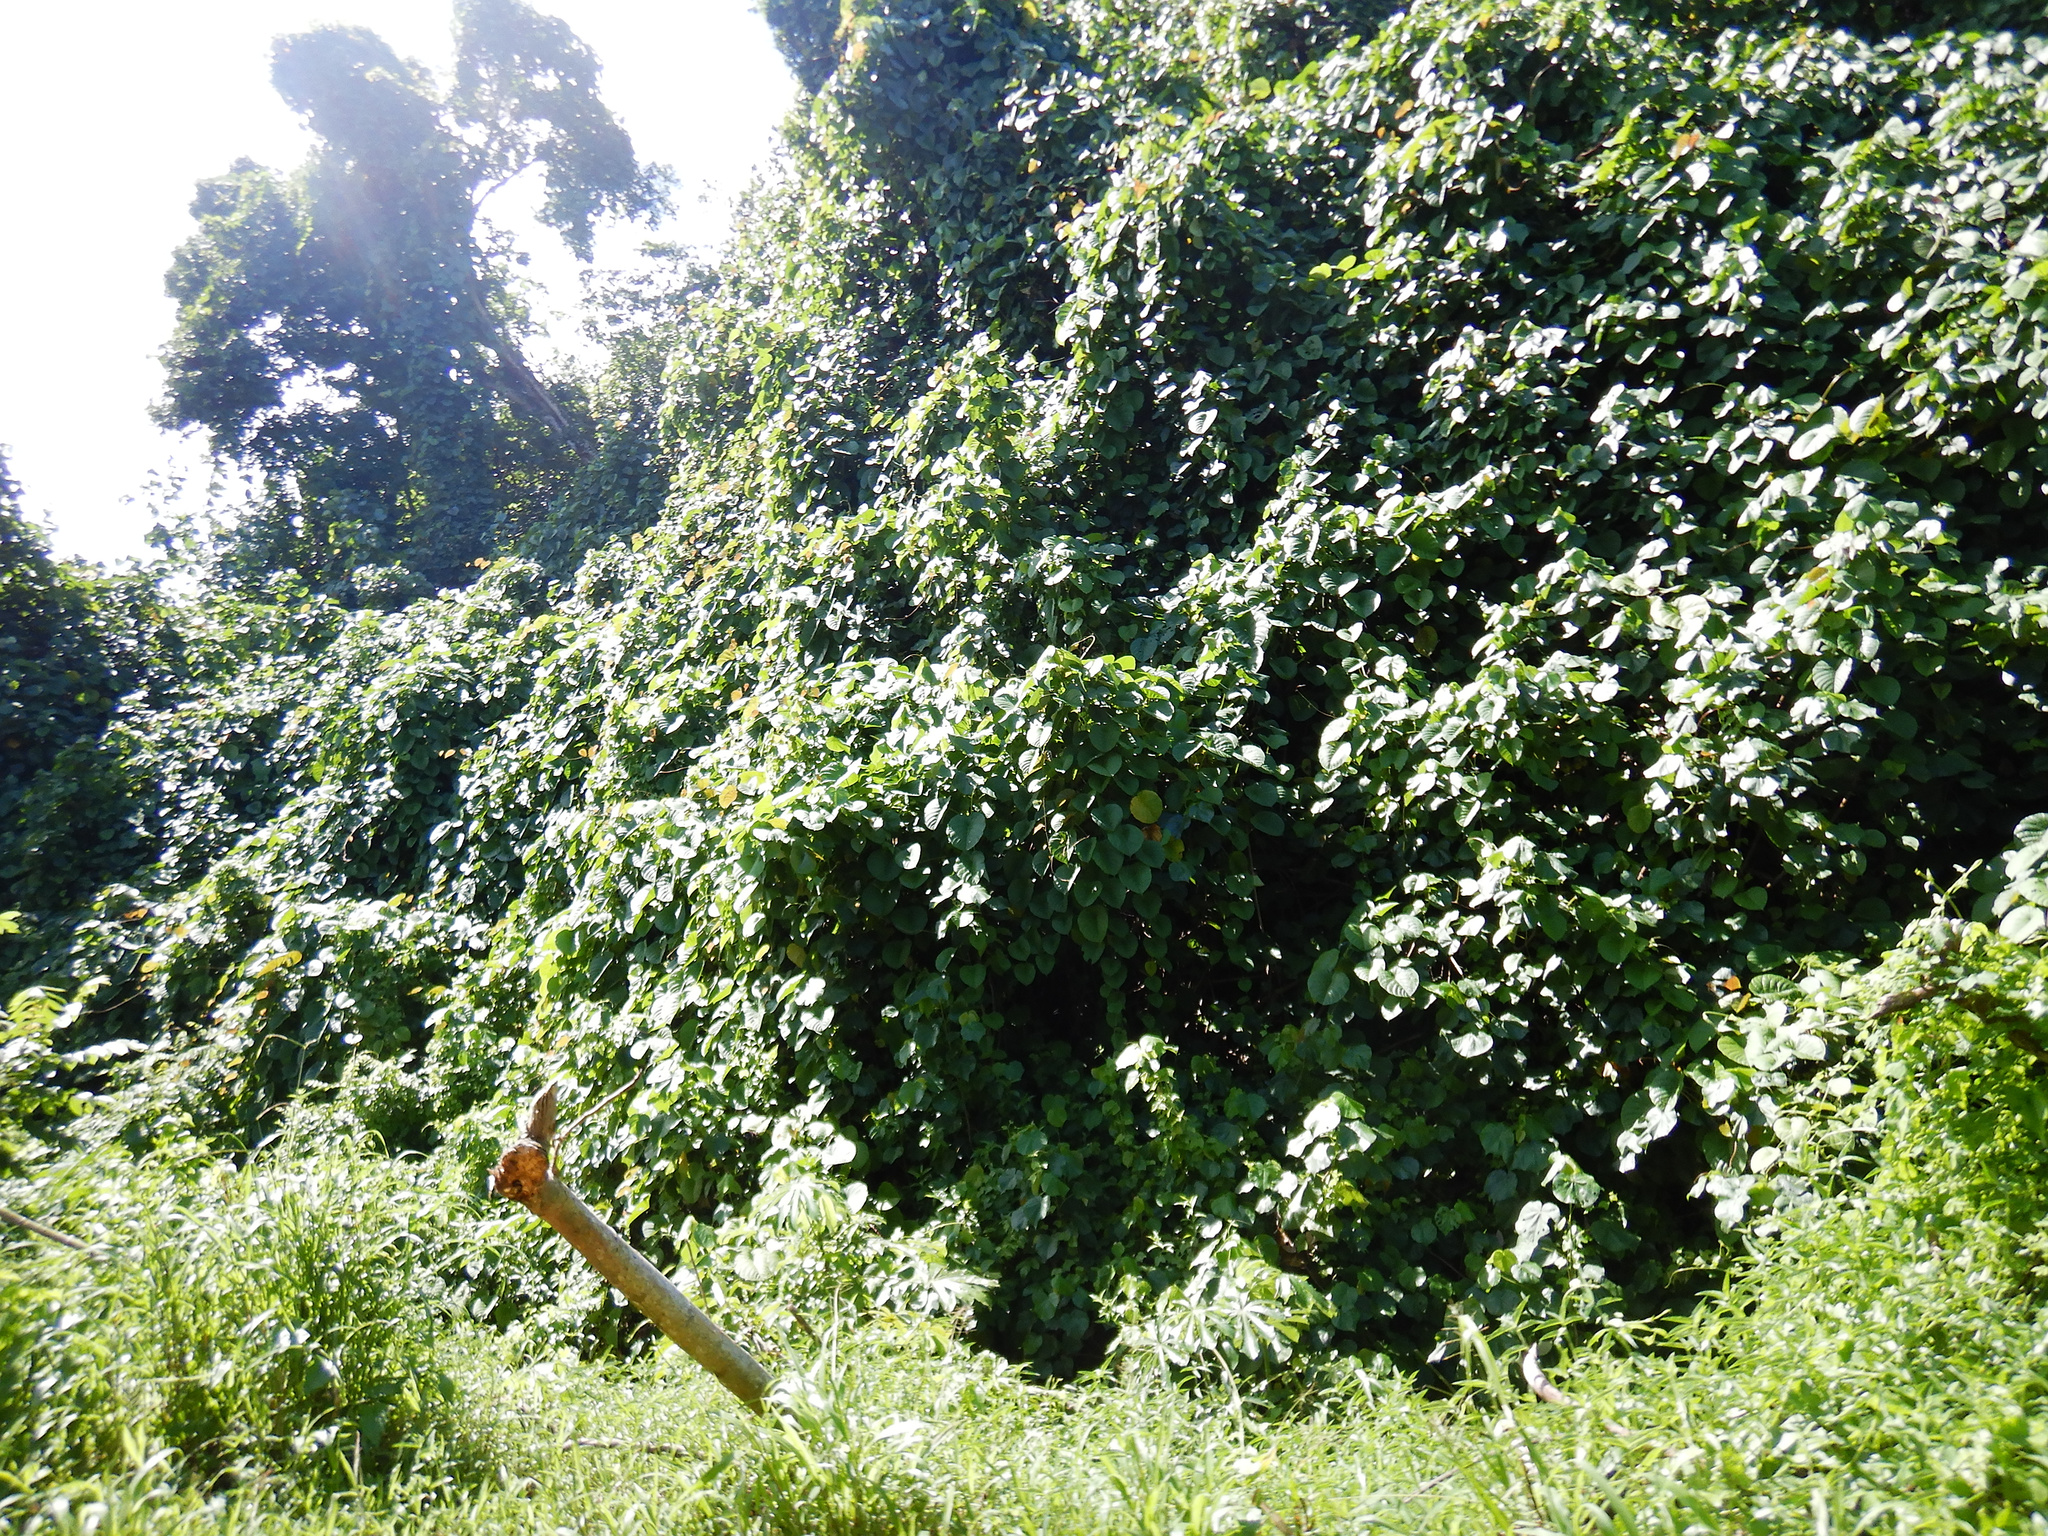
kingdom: Plantae
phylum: Tracheophyta
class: Magnoliopsida
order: Malvales
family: Malvaceae
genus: Talipariti
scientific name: Talipariti tiliaceum
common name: Sea hibiscus
